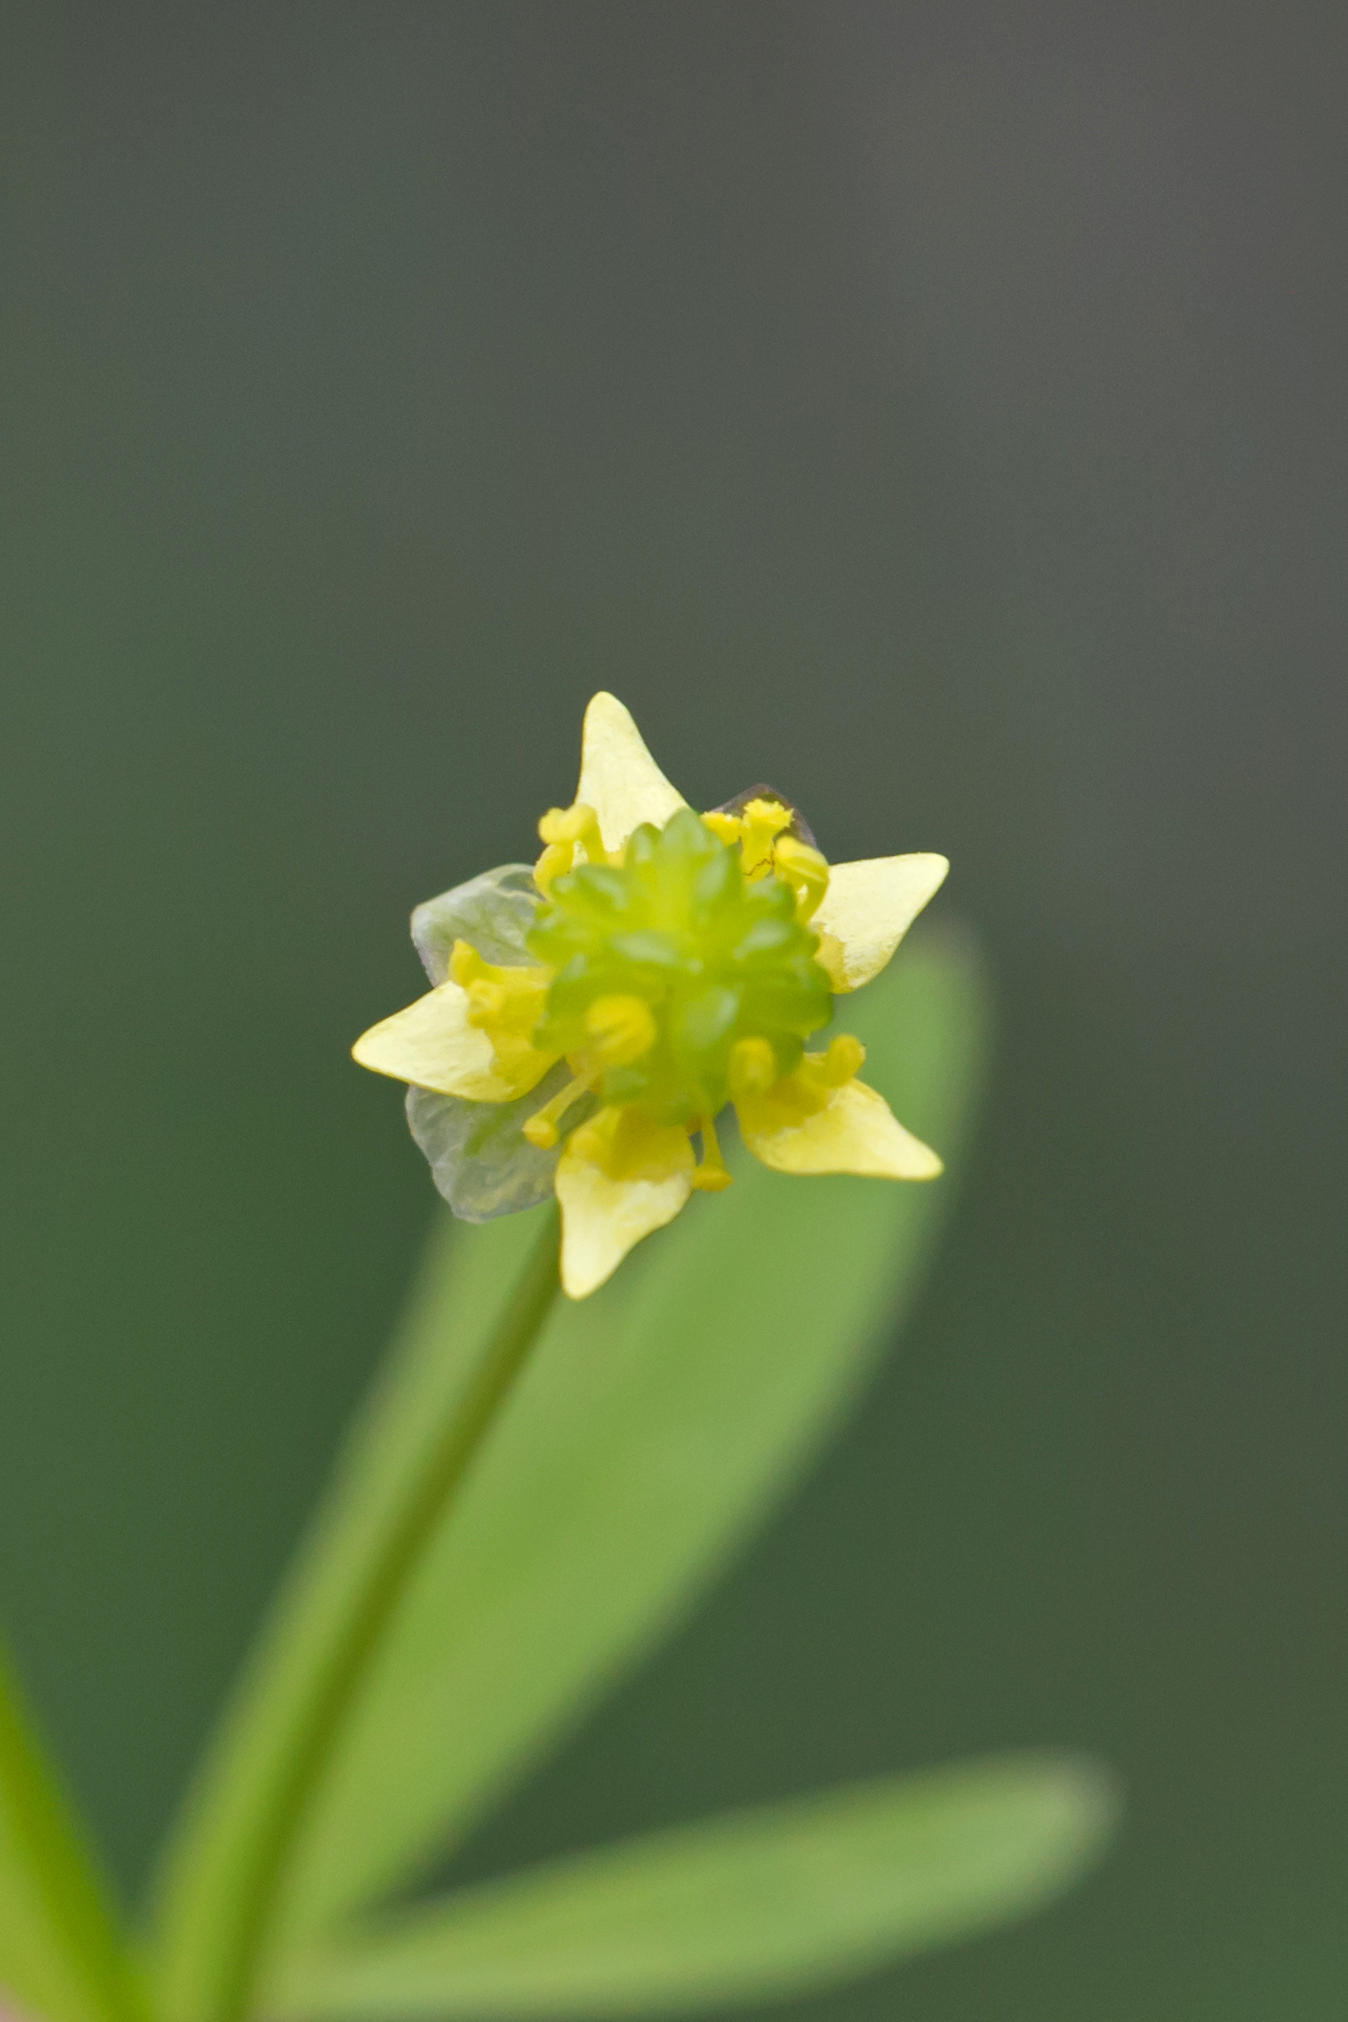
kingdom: Plantae
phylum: Tracheophyta
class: Magnoliopsida
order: Ranunculales
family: Ranunculaceae
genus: Ranunculus
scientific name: Ranunculus abortivus
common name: Early wood buttercup
